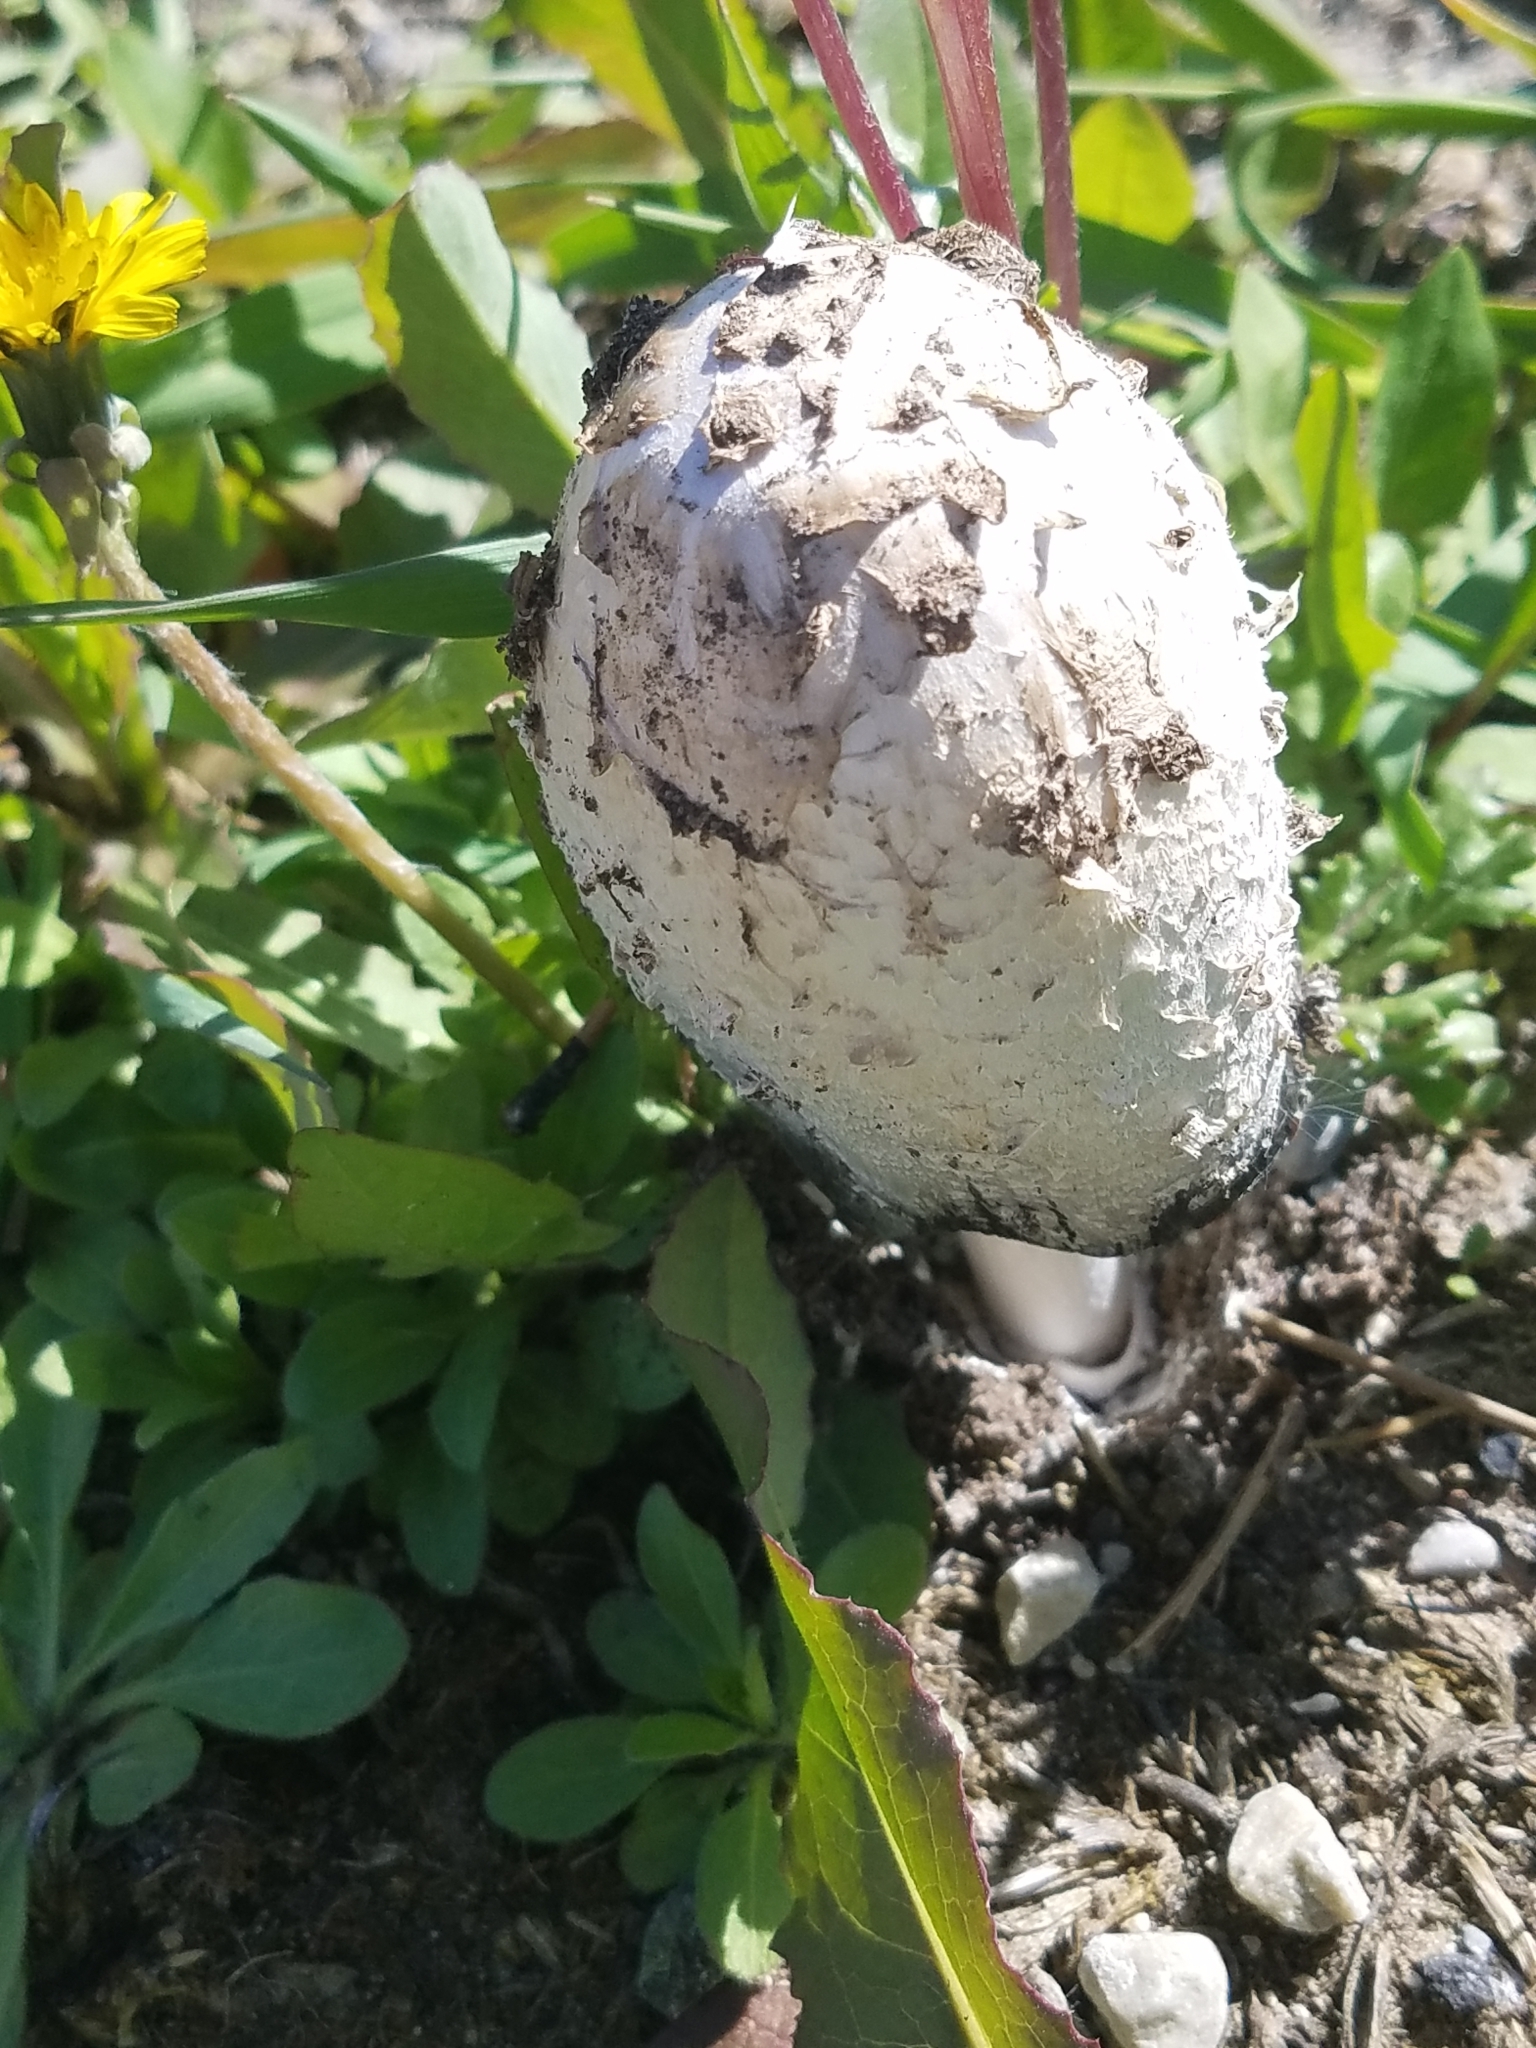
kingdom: Fungi
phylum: Basidiomycota
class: Agaricomycetes
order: Agaricales
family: Agaricaceae
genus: Coprinus
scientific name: Coprinus comatus
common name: Lawyer's wig
